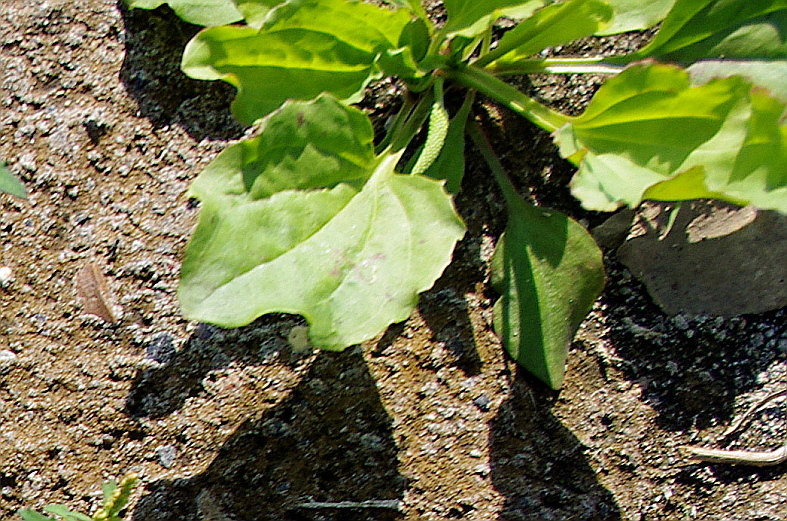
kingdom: Plantae
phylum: Tracheophyta
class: Magnoliopsida
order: Lamiales
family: Plantaginaceae
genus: Plantago
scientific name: Plantago major
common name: Common plantain
